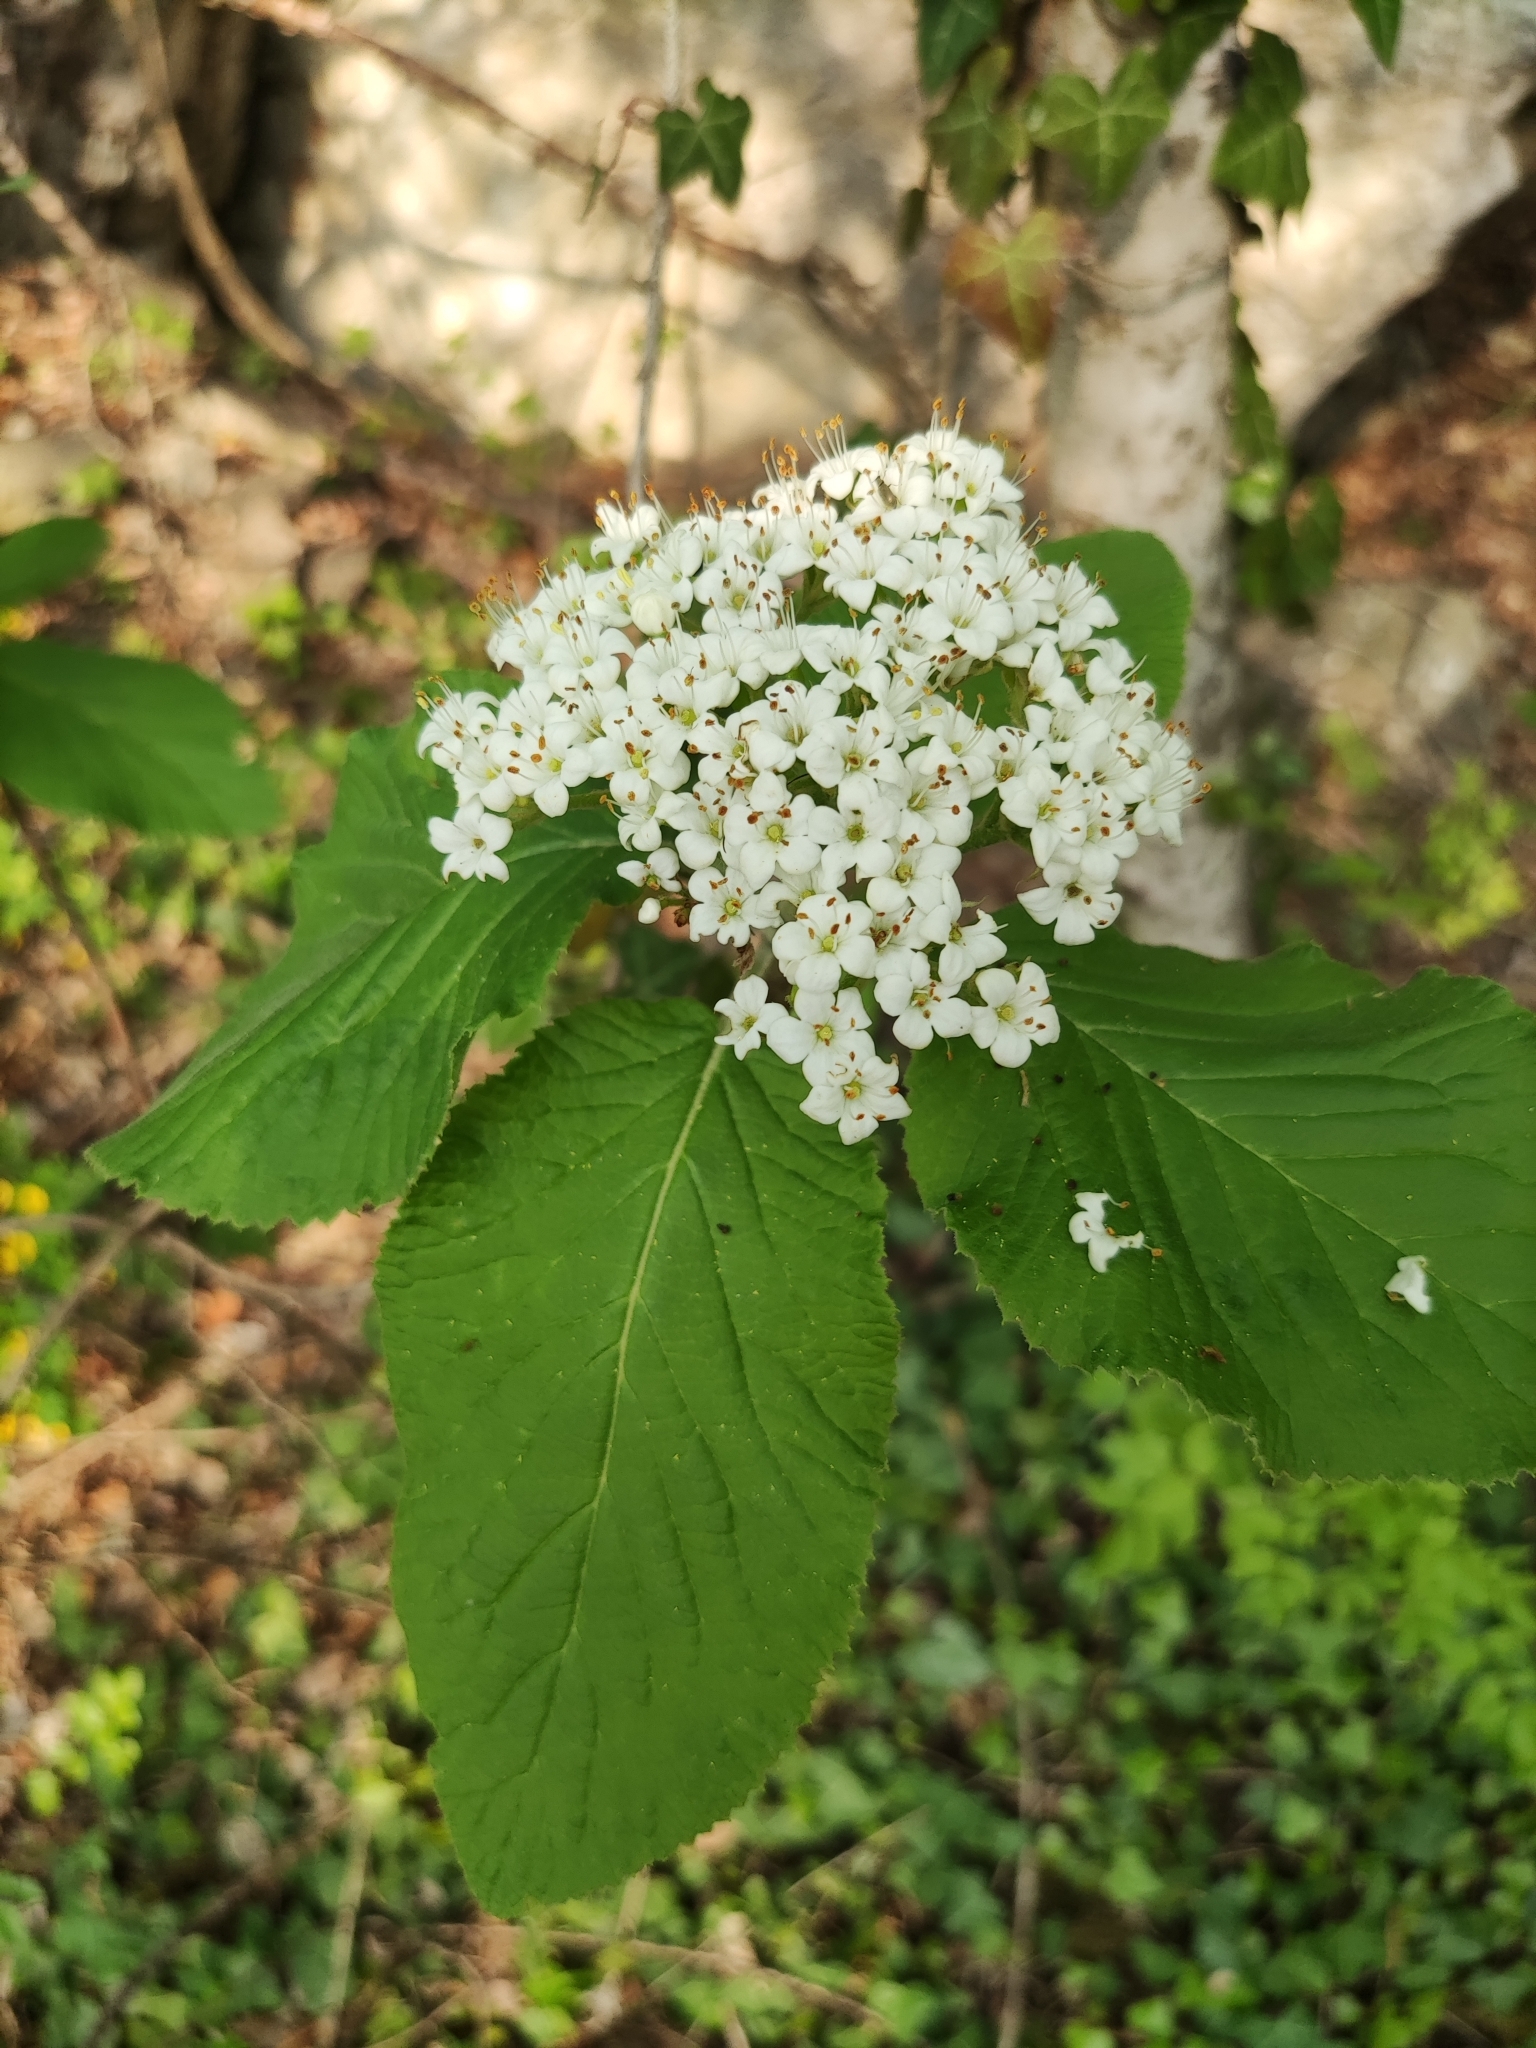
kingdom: Plantae
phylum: Tracheophyta
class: Magnoliopsida
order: Dipsacales
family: Viburnaceae
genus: Viburnum
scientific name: Viburnum lantana
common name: Wayfaring tree
